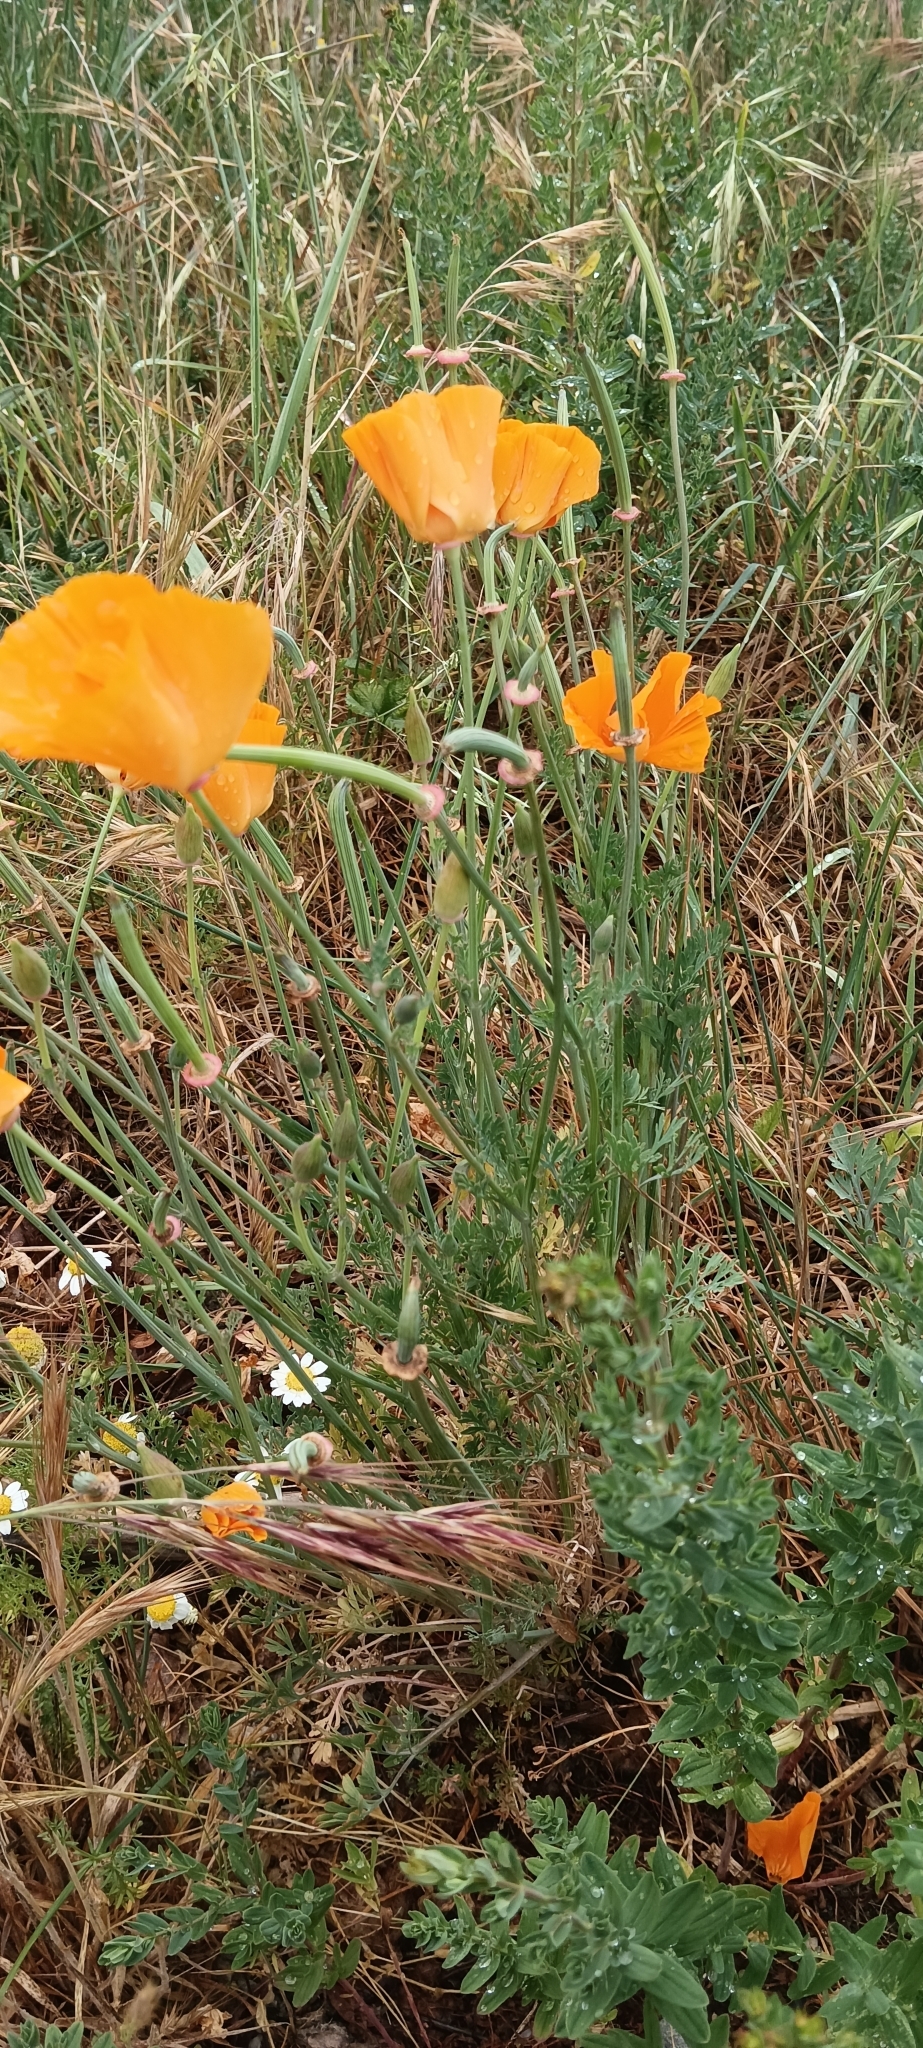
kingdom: Plantae
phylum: Tracheophyta
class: Magnoliopsida
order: Ranunculales
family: Papaveraceae
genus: Eschscholzia
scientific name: Eschscholzia californica
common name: California poppy
